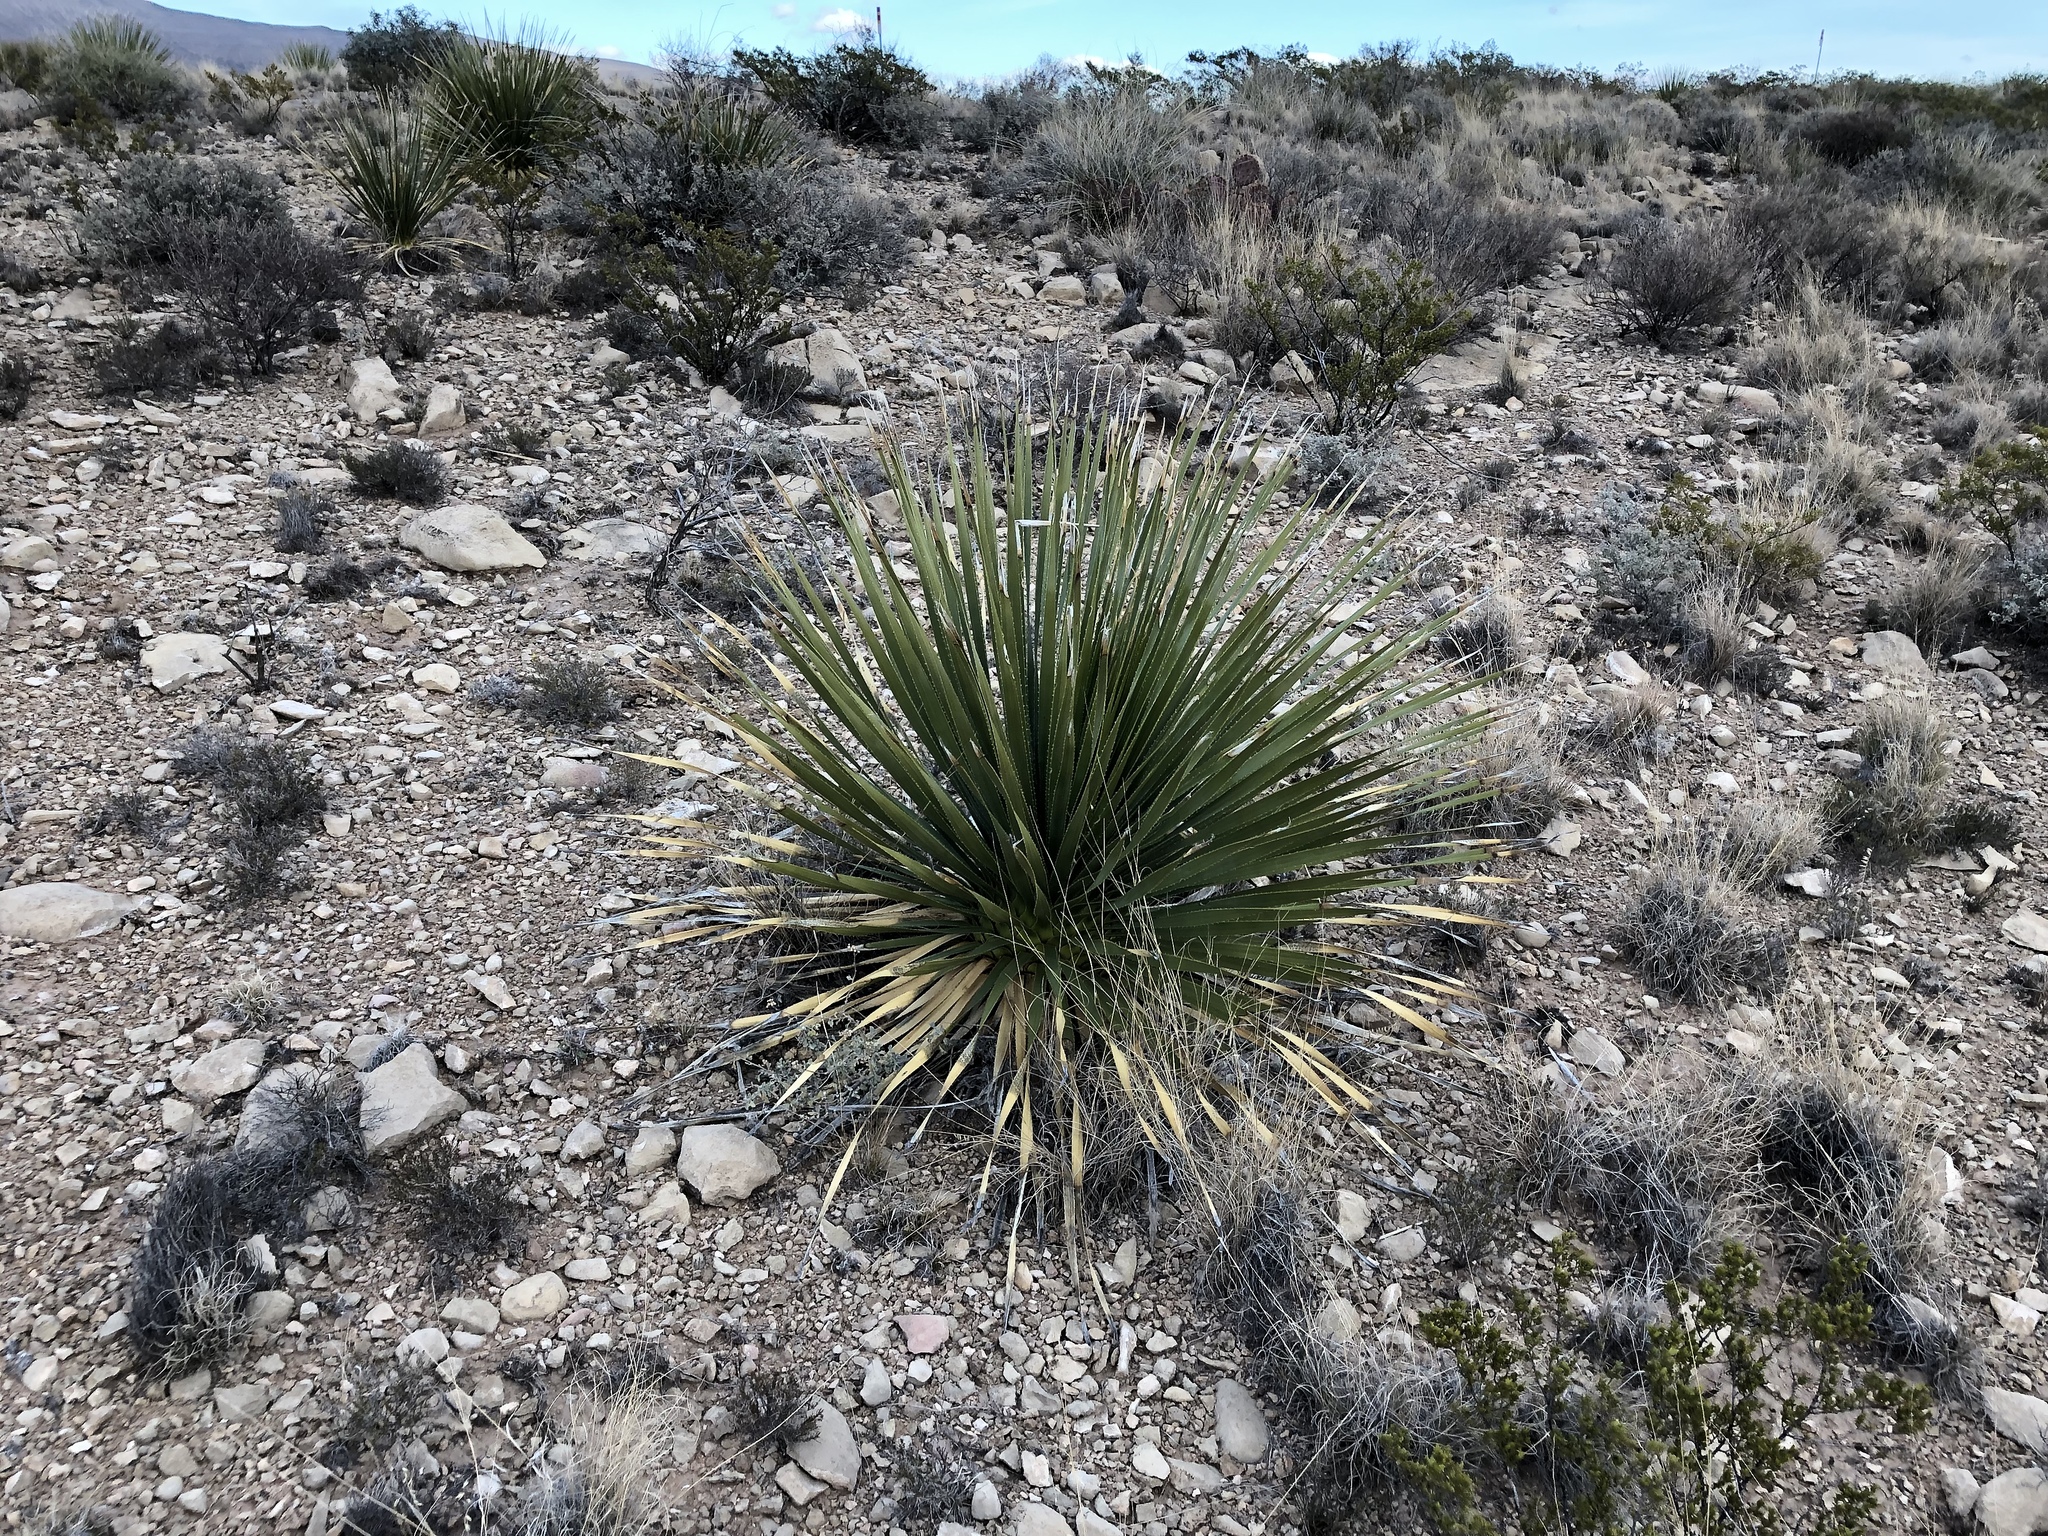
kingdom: Plantae
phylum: Tracheophyta
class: Liliopsida
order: Asparagales
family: Asparagaceae
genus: Dasylirion
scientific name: Dasylirion wheeleri
